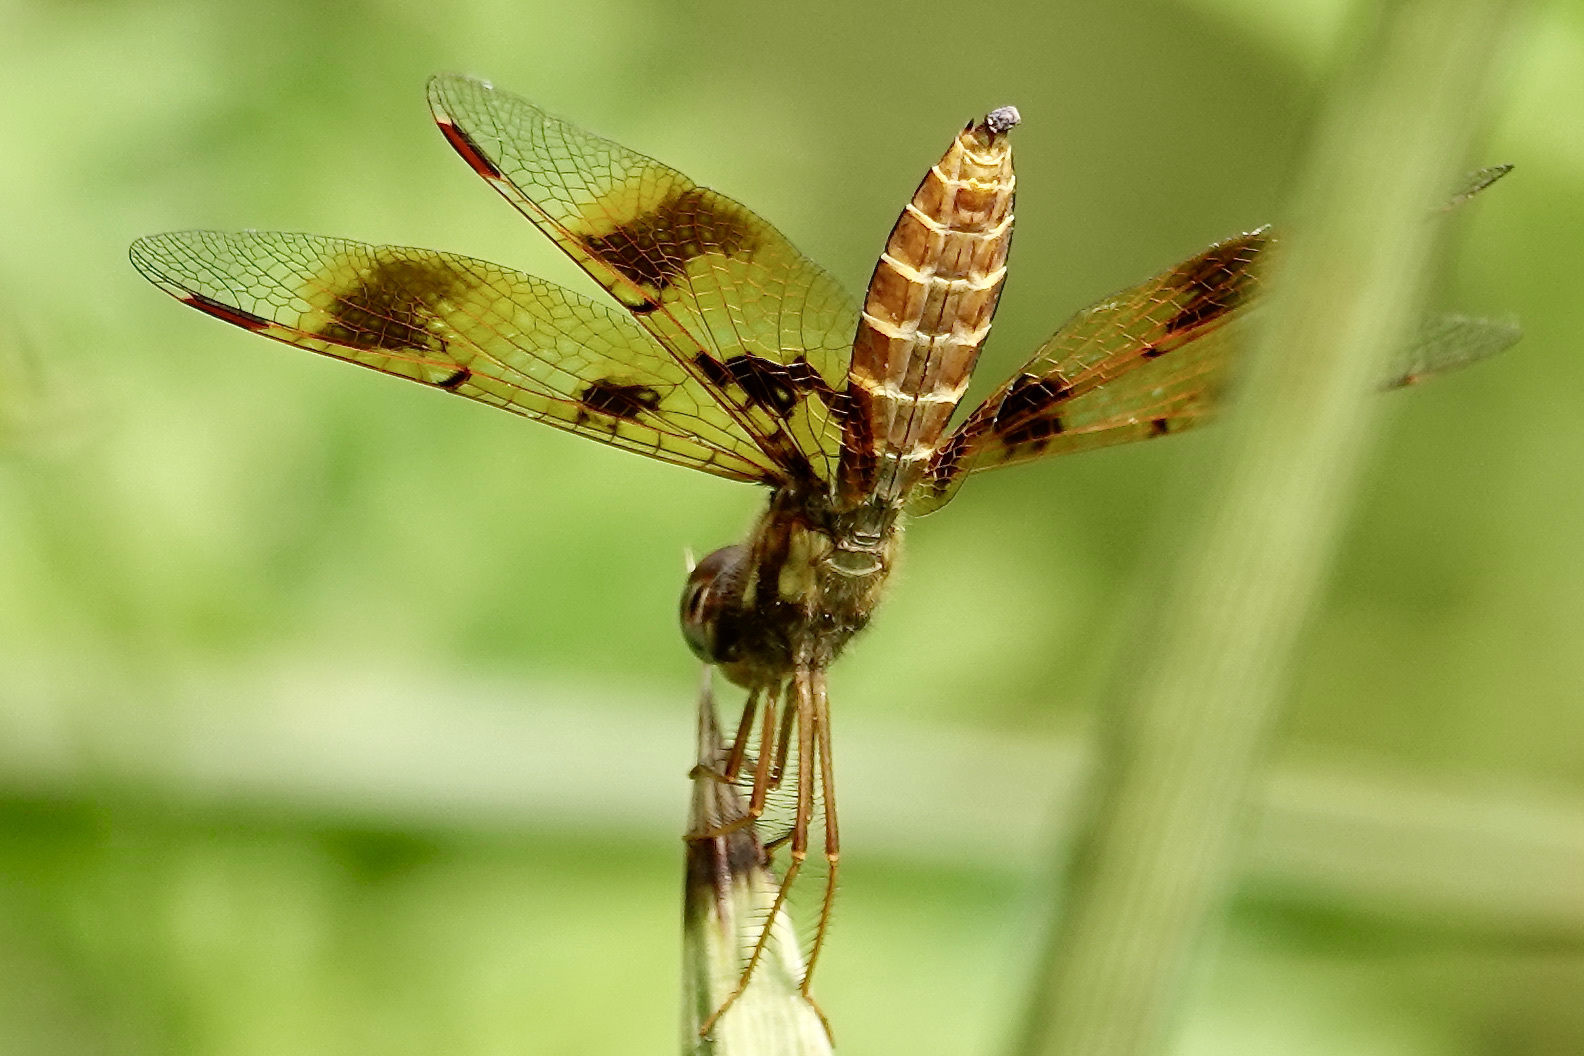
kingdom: Animalia
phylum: Arthropoda
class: Insecta
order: Odonata
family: Libellulidae
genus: Perithemis
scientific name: Perithemis tenera
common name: Eastern amberwing
